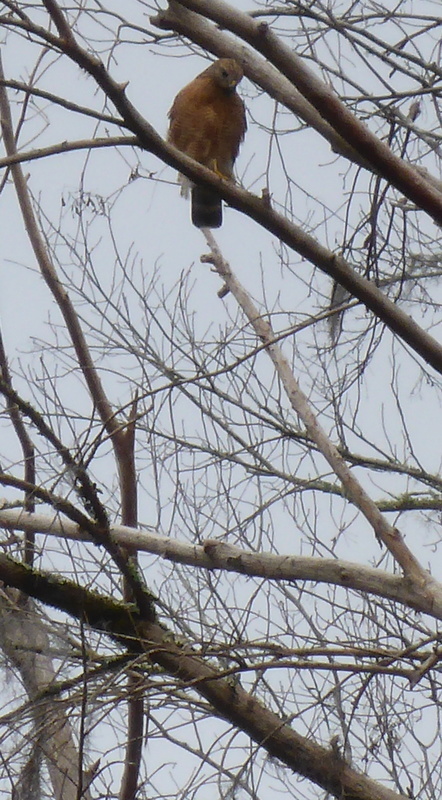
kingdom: Animalia
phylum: Chordata
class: Aves
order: Accipitriformes
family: Accipitridae
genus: Buteo
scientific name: Buteo lineatus
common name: Red-shouldered hawk
